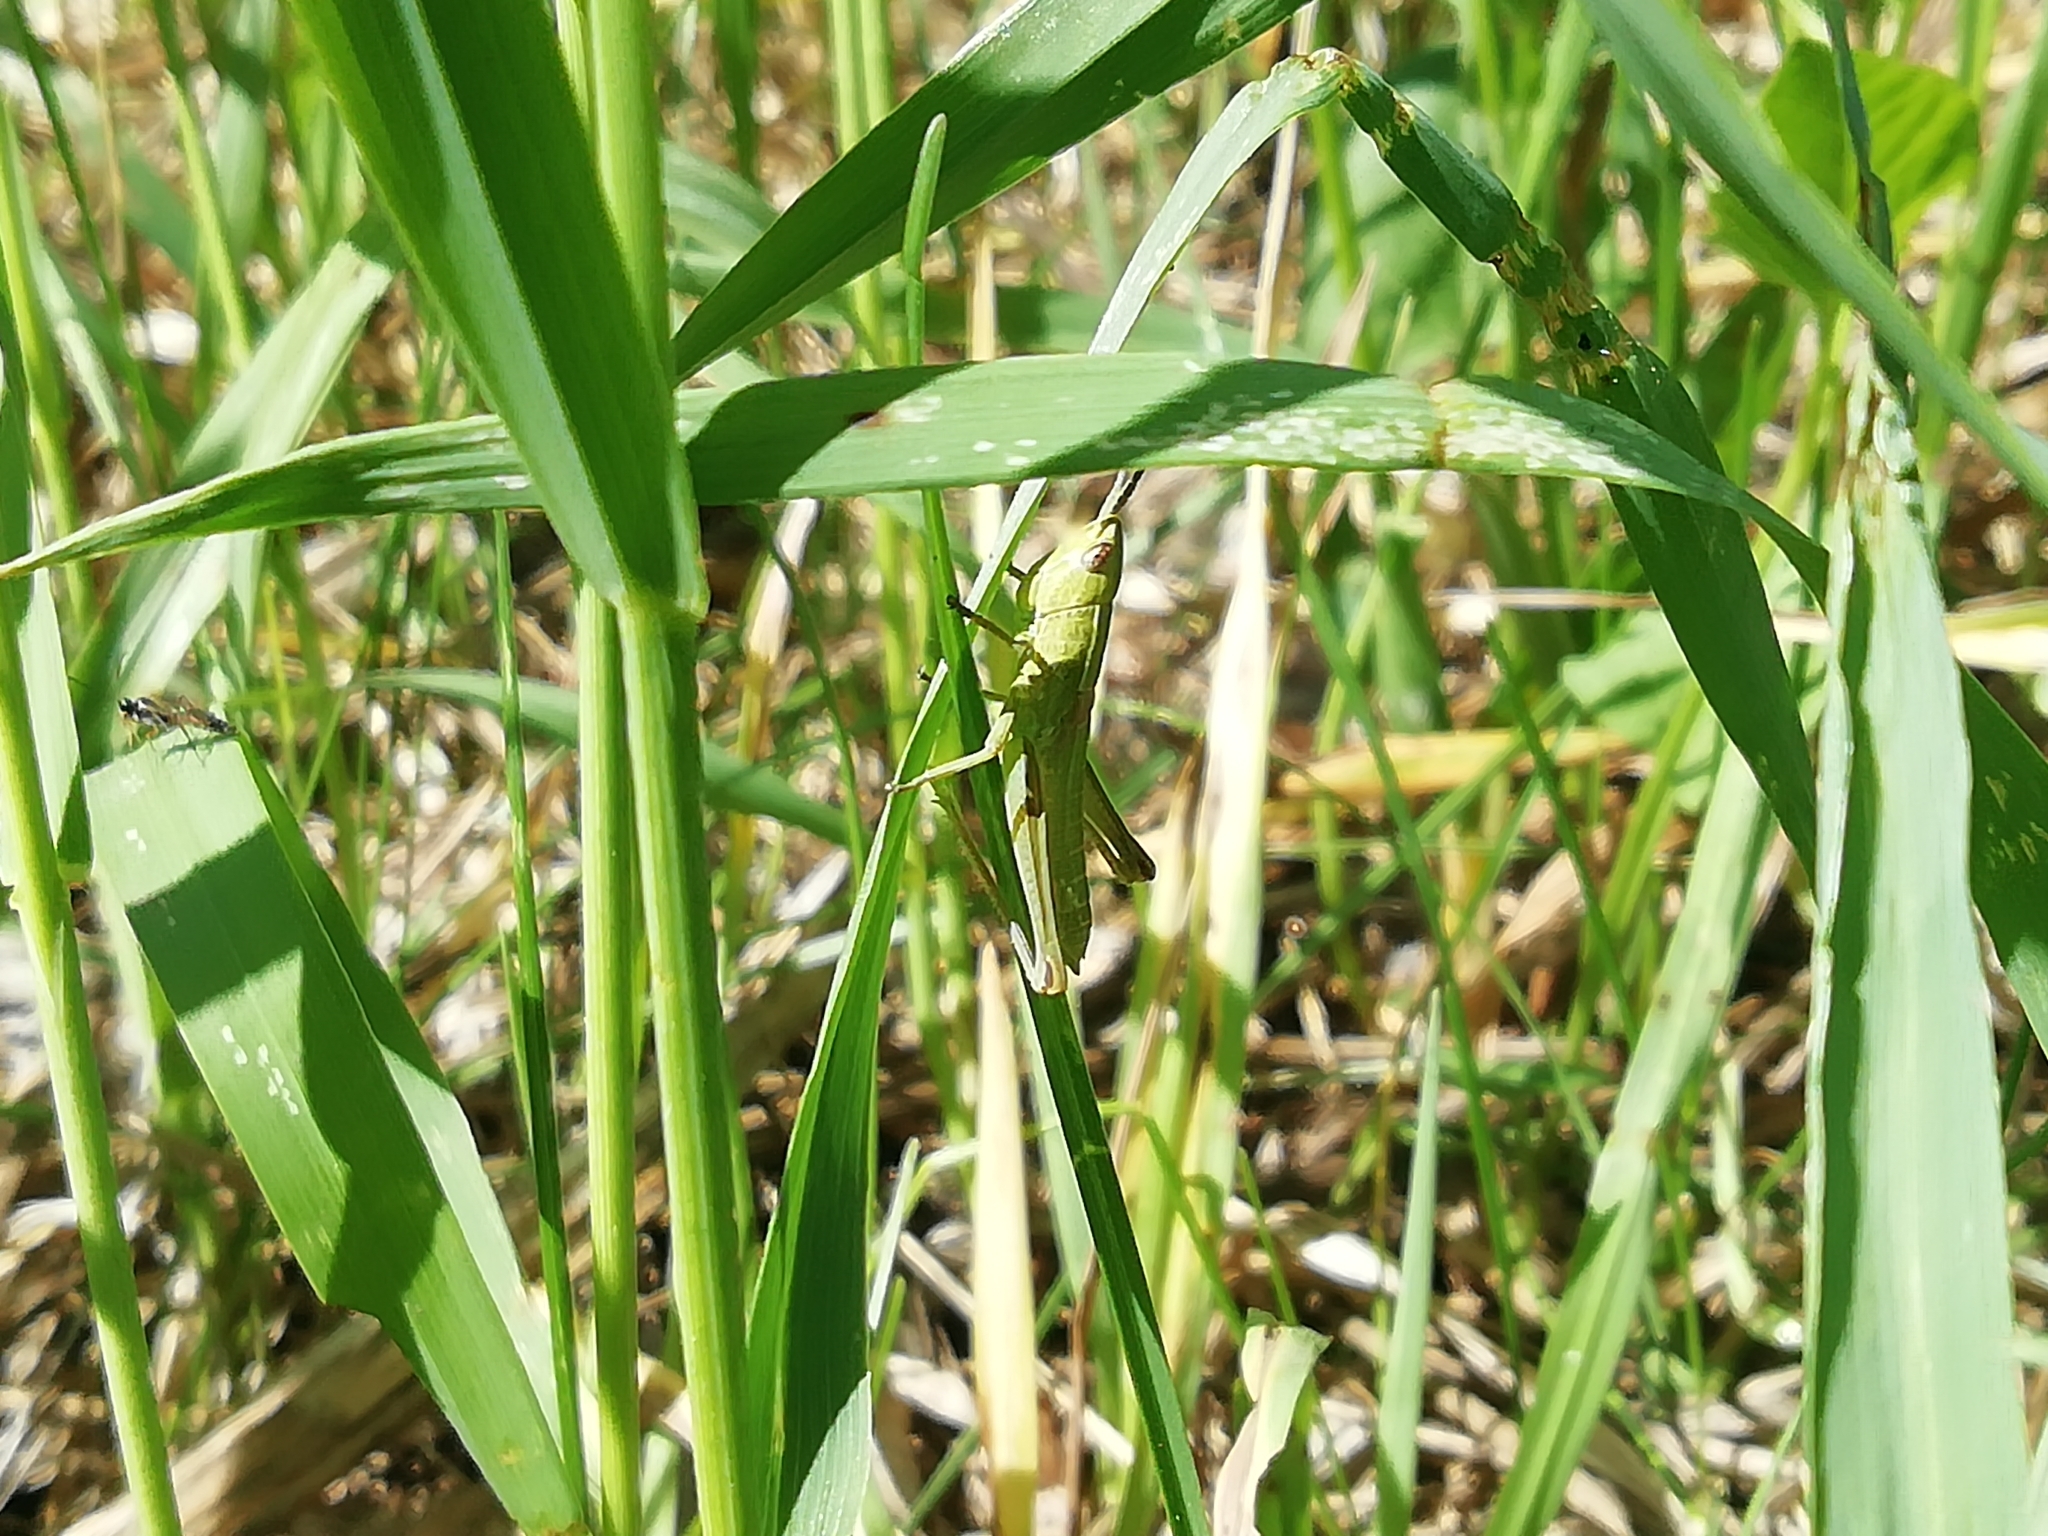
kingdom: Animalia
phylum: Arthropoda
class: Insecta
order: Orthoptera
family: Acrididae
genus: Euthystira
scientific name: Euthystira brachyptera
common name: Small gold grasshopper
